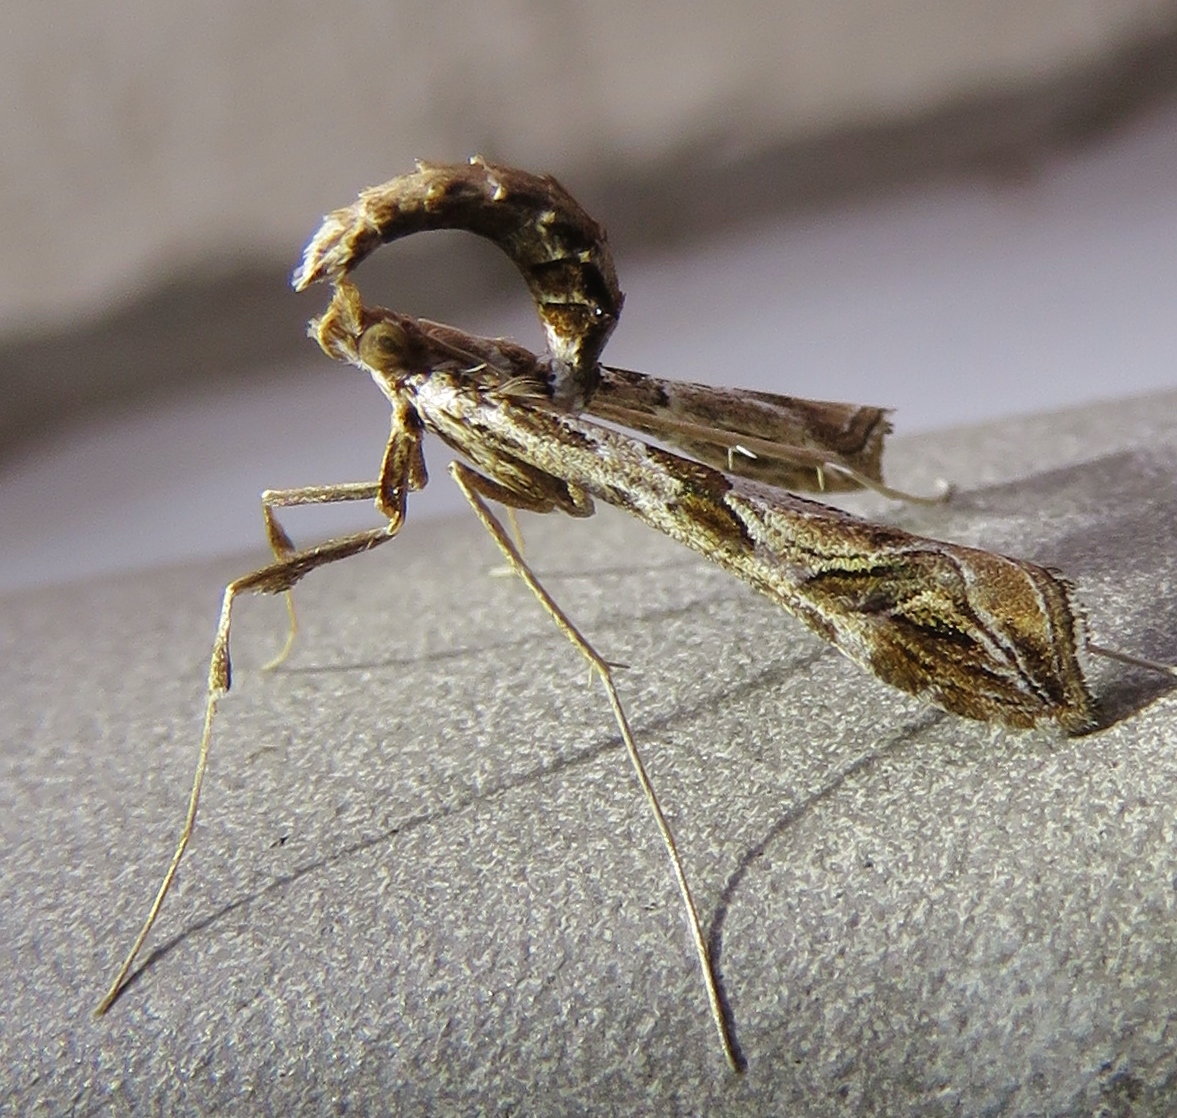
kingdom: Animalia
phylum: Arthropoda
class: Insecta
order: Lepidoptera
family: Crambidae
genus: Lineodes
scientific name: Lineodes interrupta
